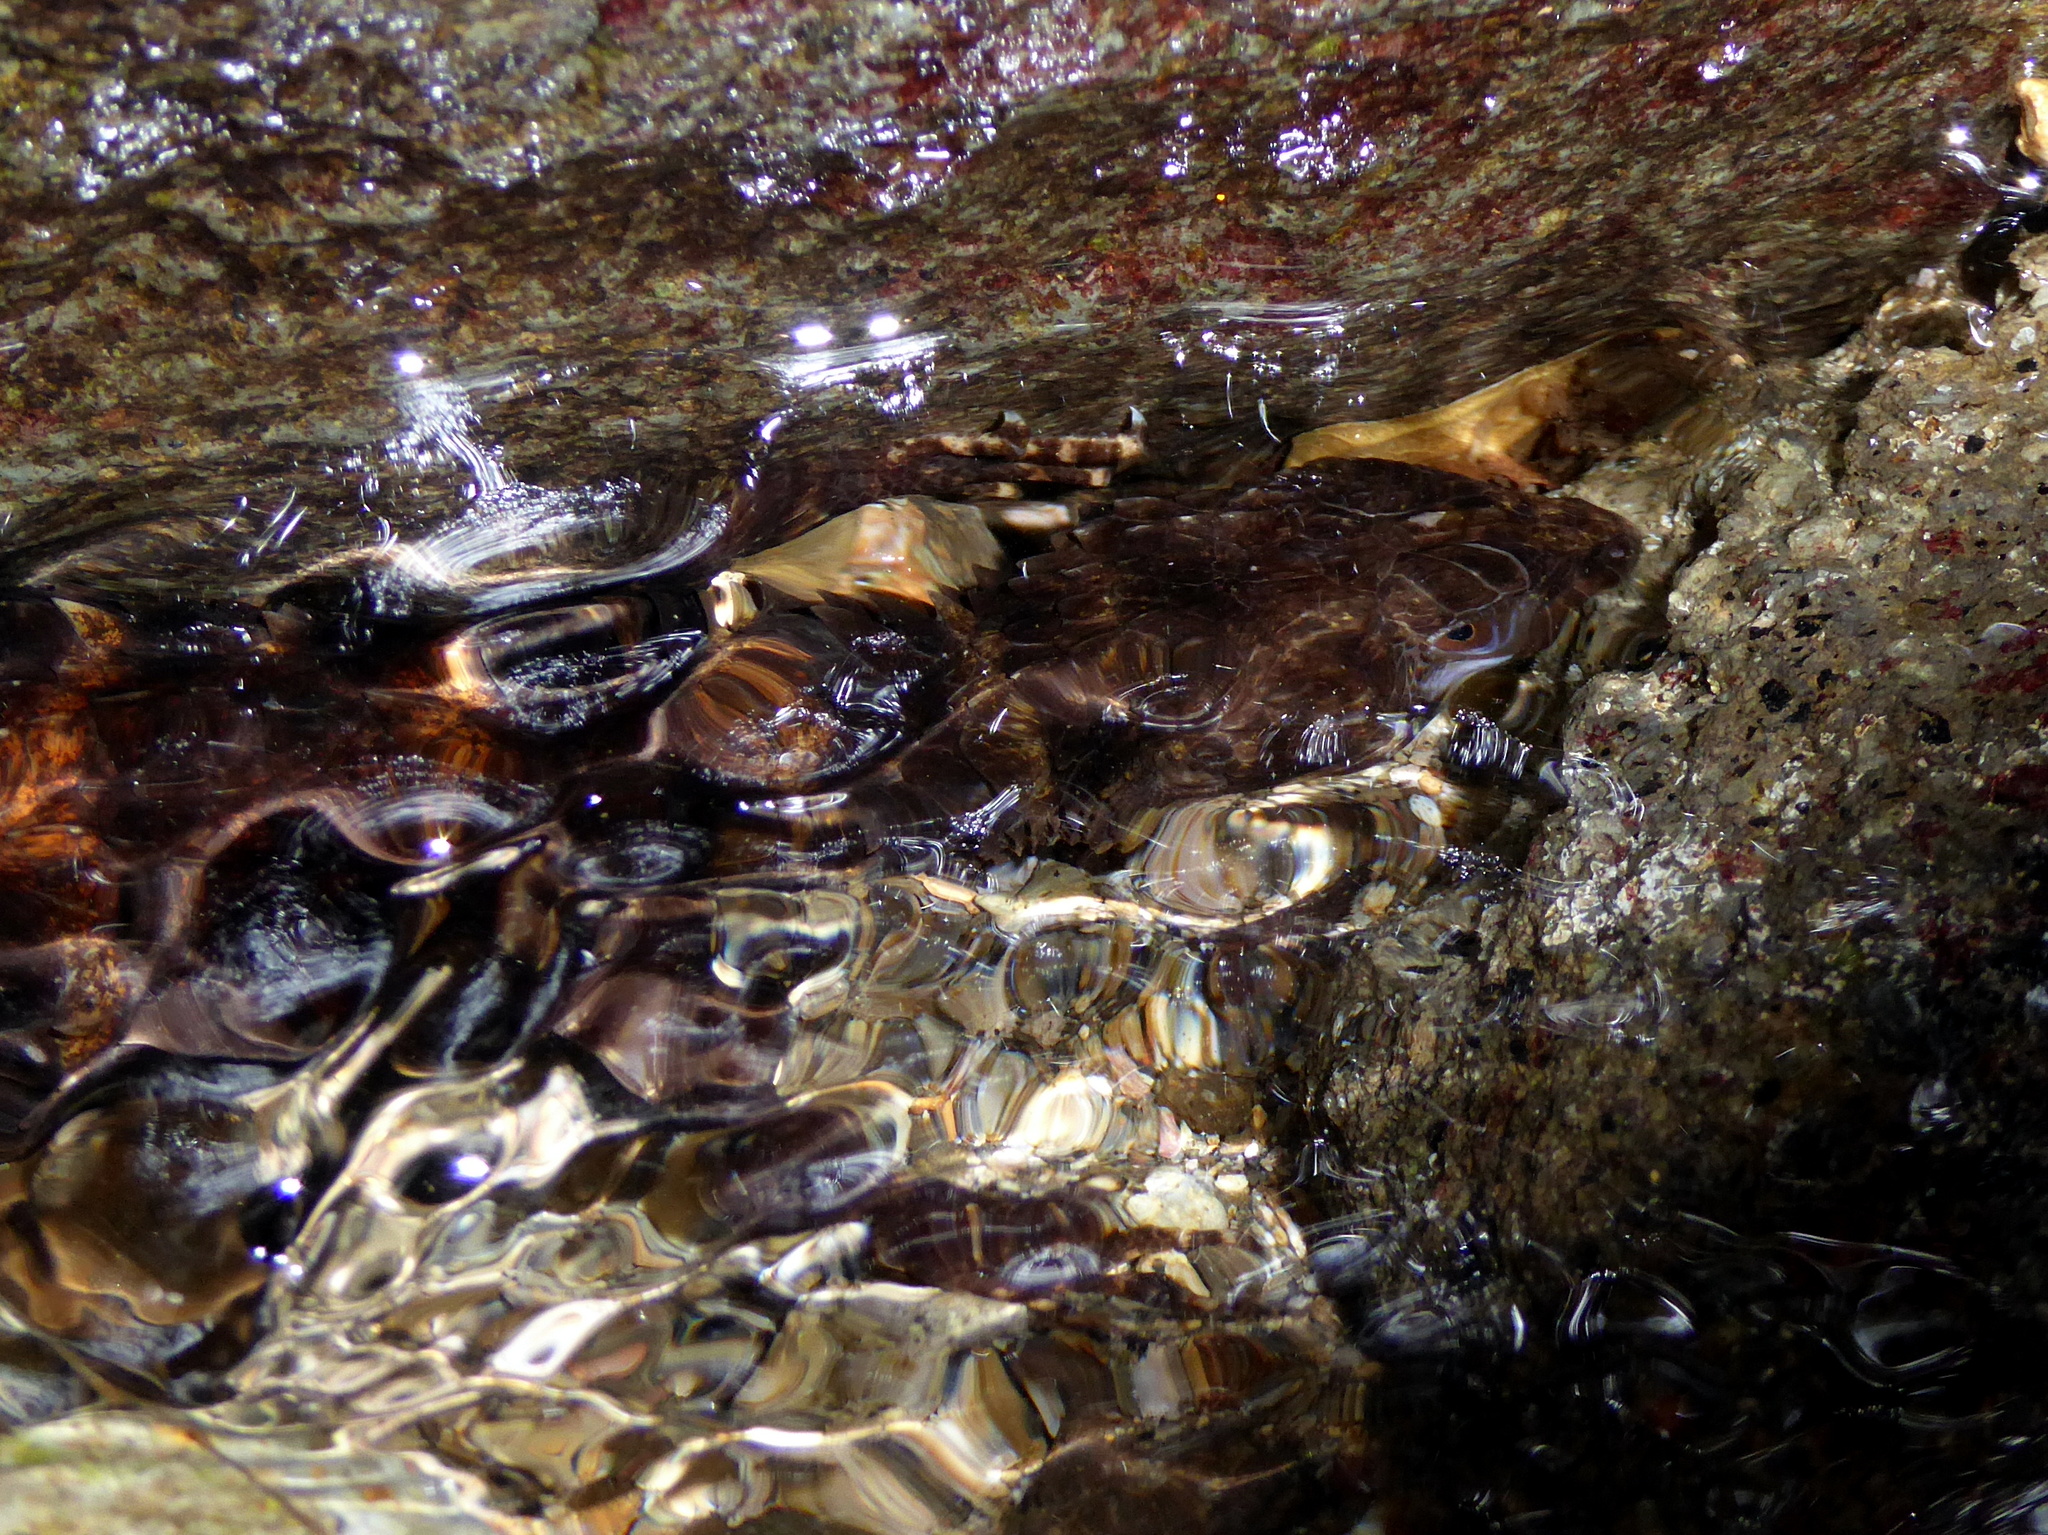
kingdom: Animalia
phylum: Chordata
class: Squamata
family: Scincidae
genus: Tropidophorus
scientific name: Tropidophorus grayi
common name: Spiny waterside skink
